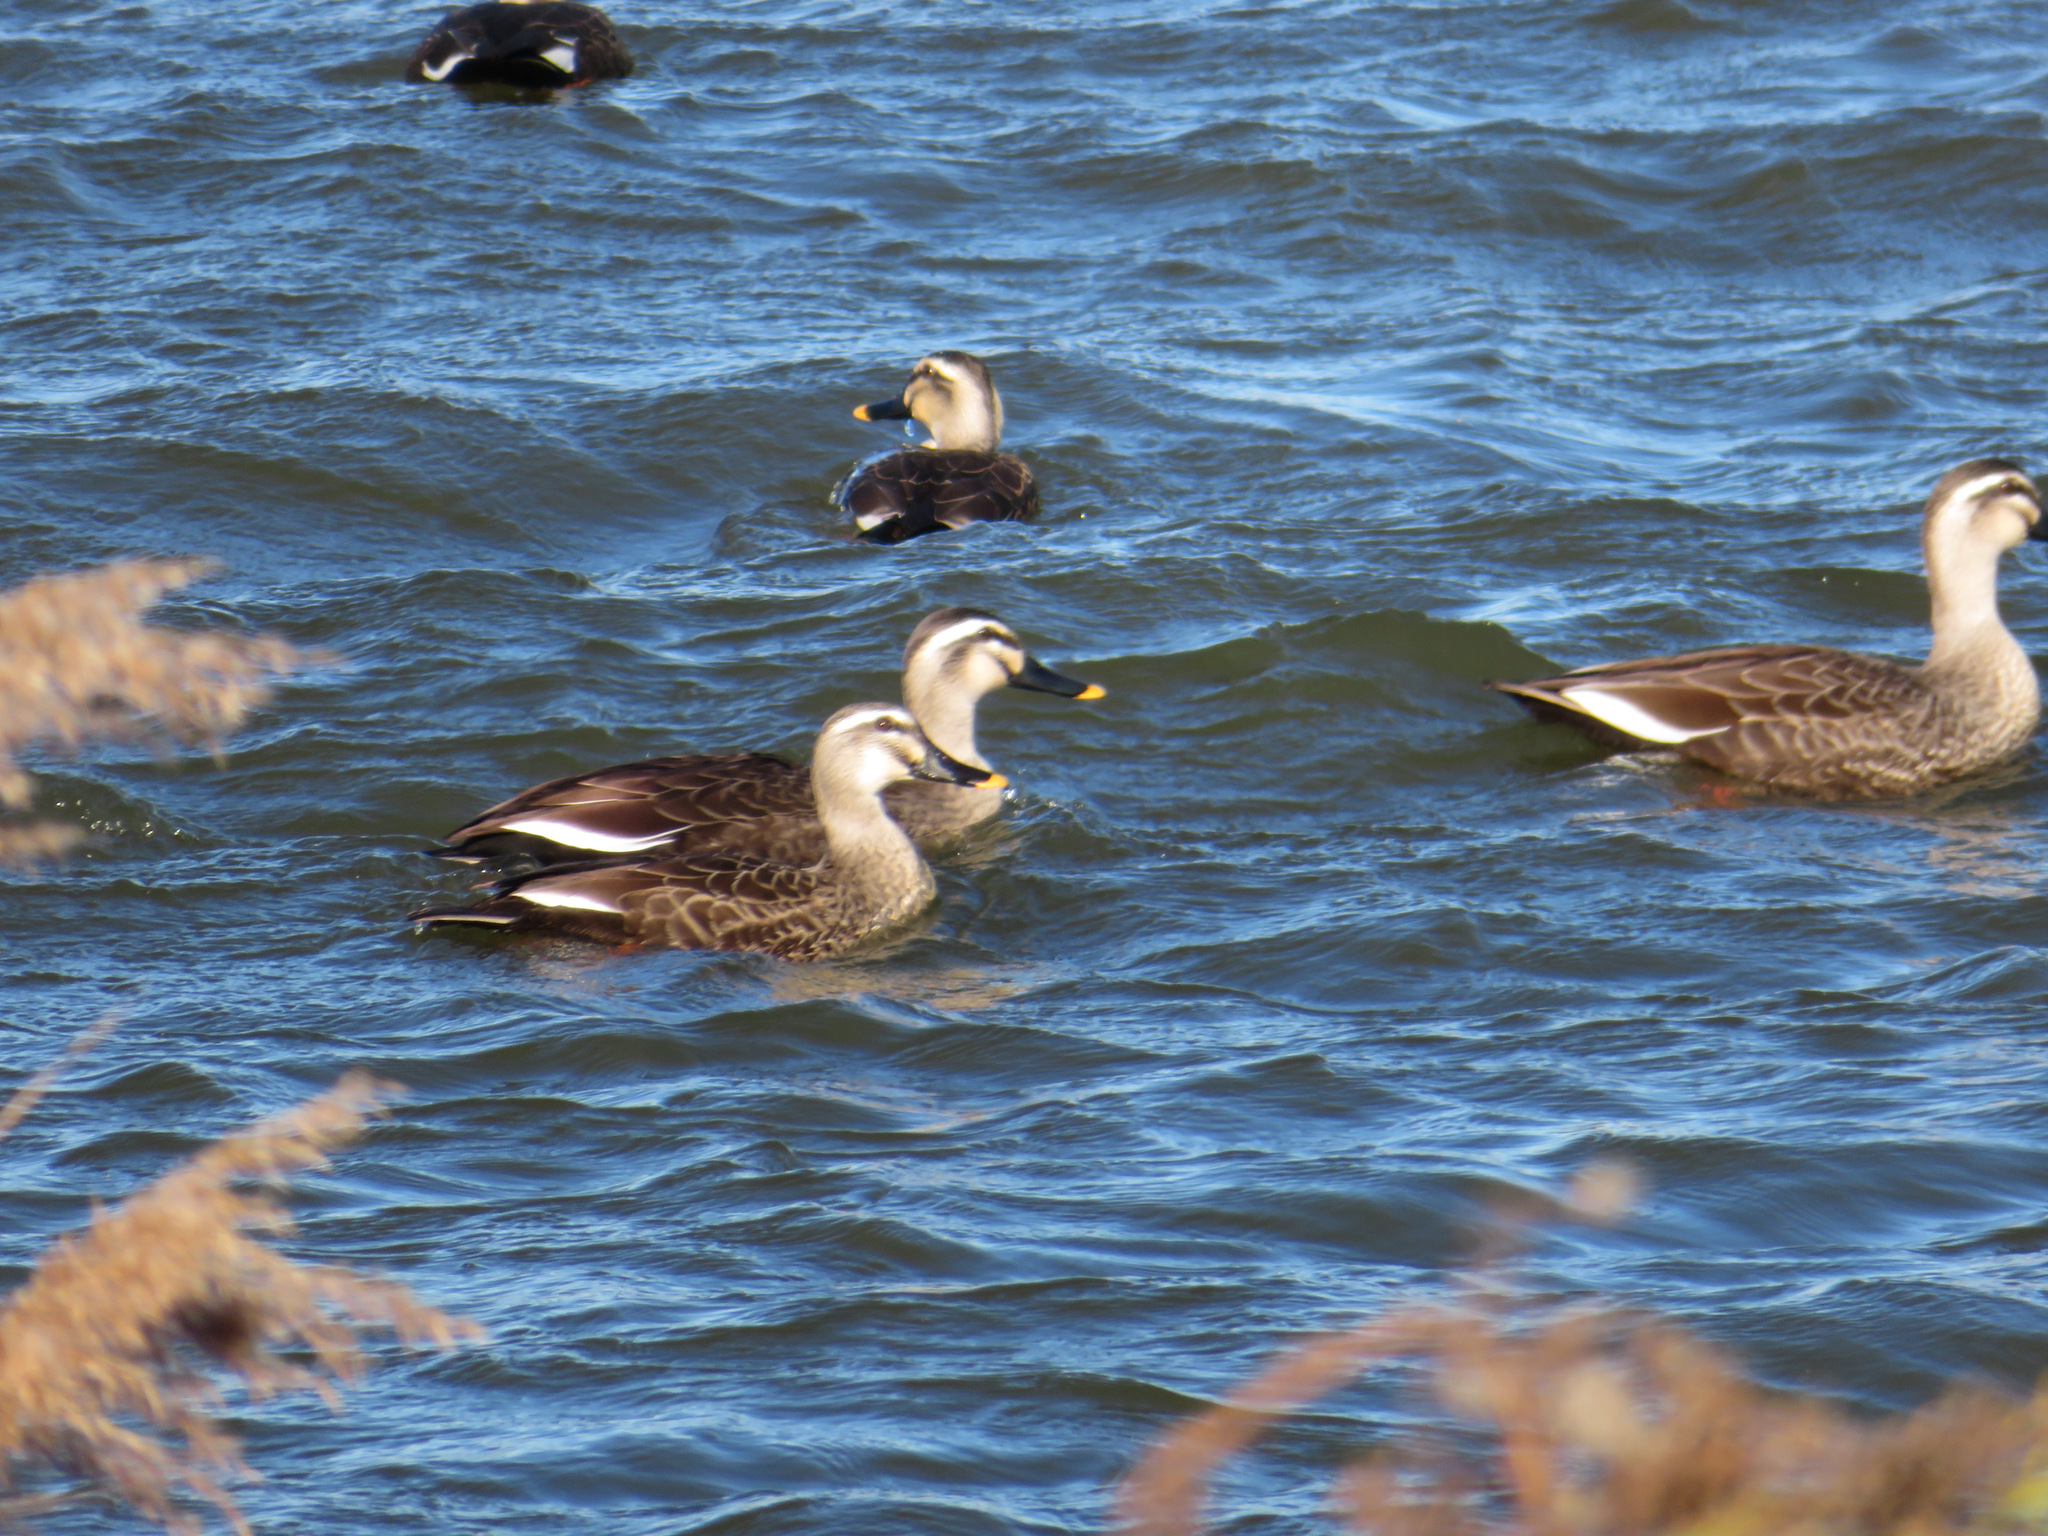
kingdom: Animalia
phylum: Chordata
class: Aves
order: Anseriformes
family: Anatidae
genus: Anas
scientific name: Anas zonorhyncha
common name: Eastern spot-billed duck
